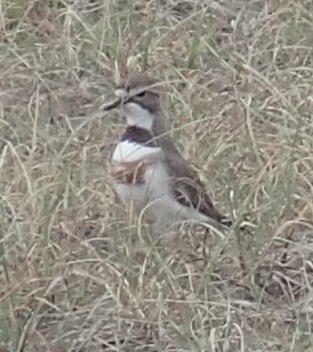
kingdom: Animalia
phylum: Chordata
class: Aves
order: Charadriiformes
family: Charadriidae
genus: Anarhynchus
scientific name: Anarhynchus
